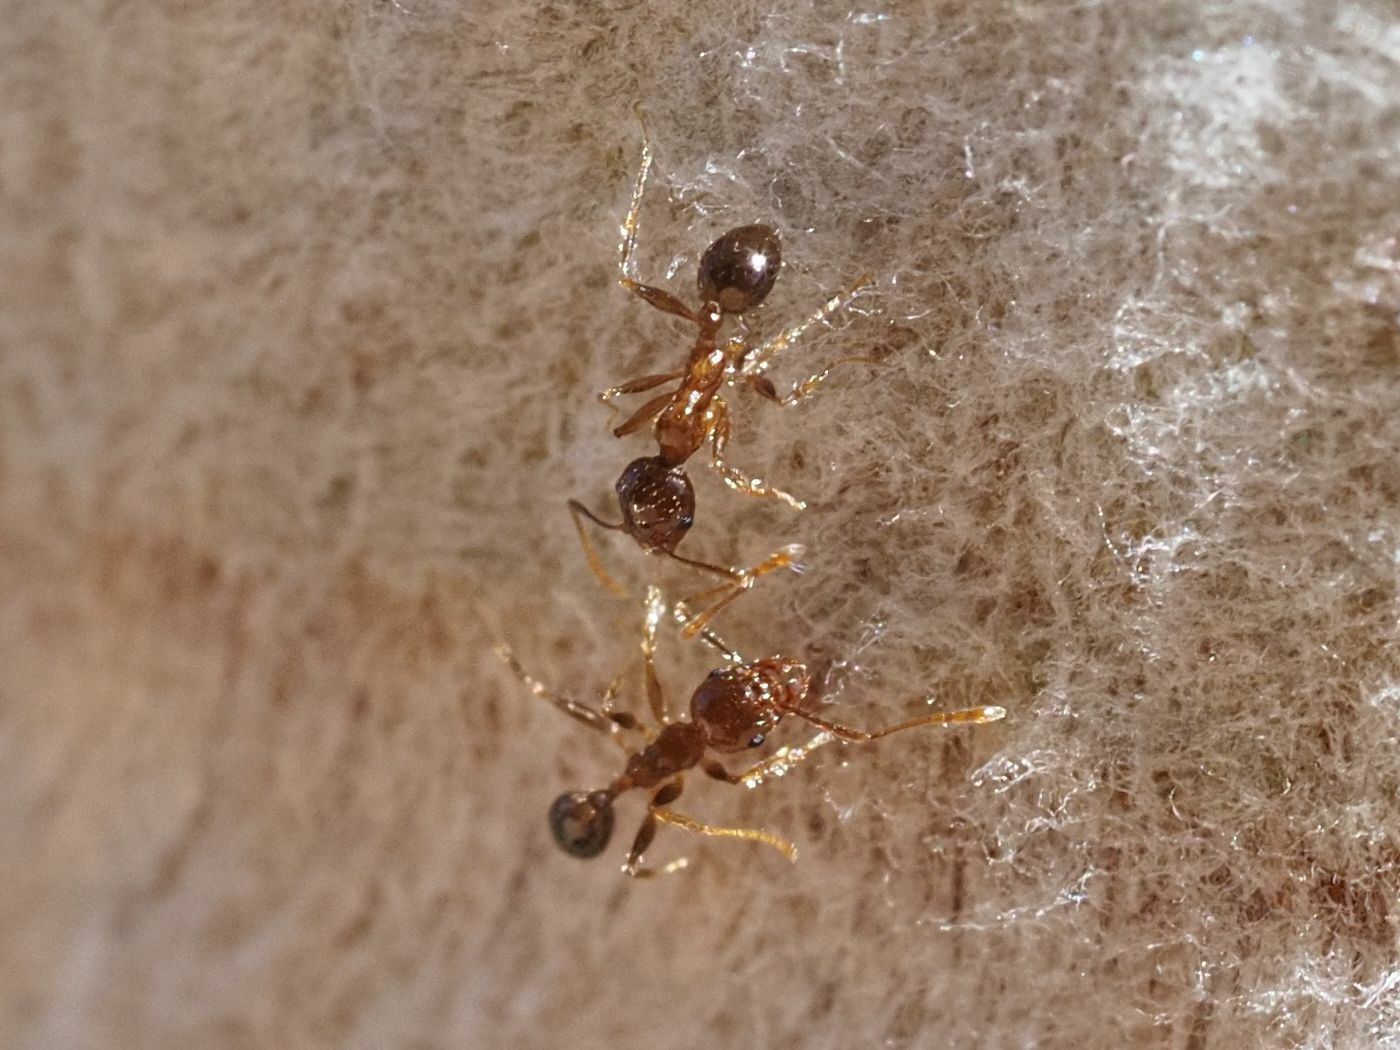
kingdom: Animalia
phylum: Arthropoda
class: Insecta
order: Hymenoptera
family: Formicidae
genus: Pheidole
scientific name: Pheidole megacephala
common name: Bigheaded ant
